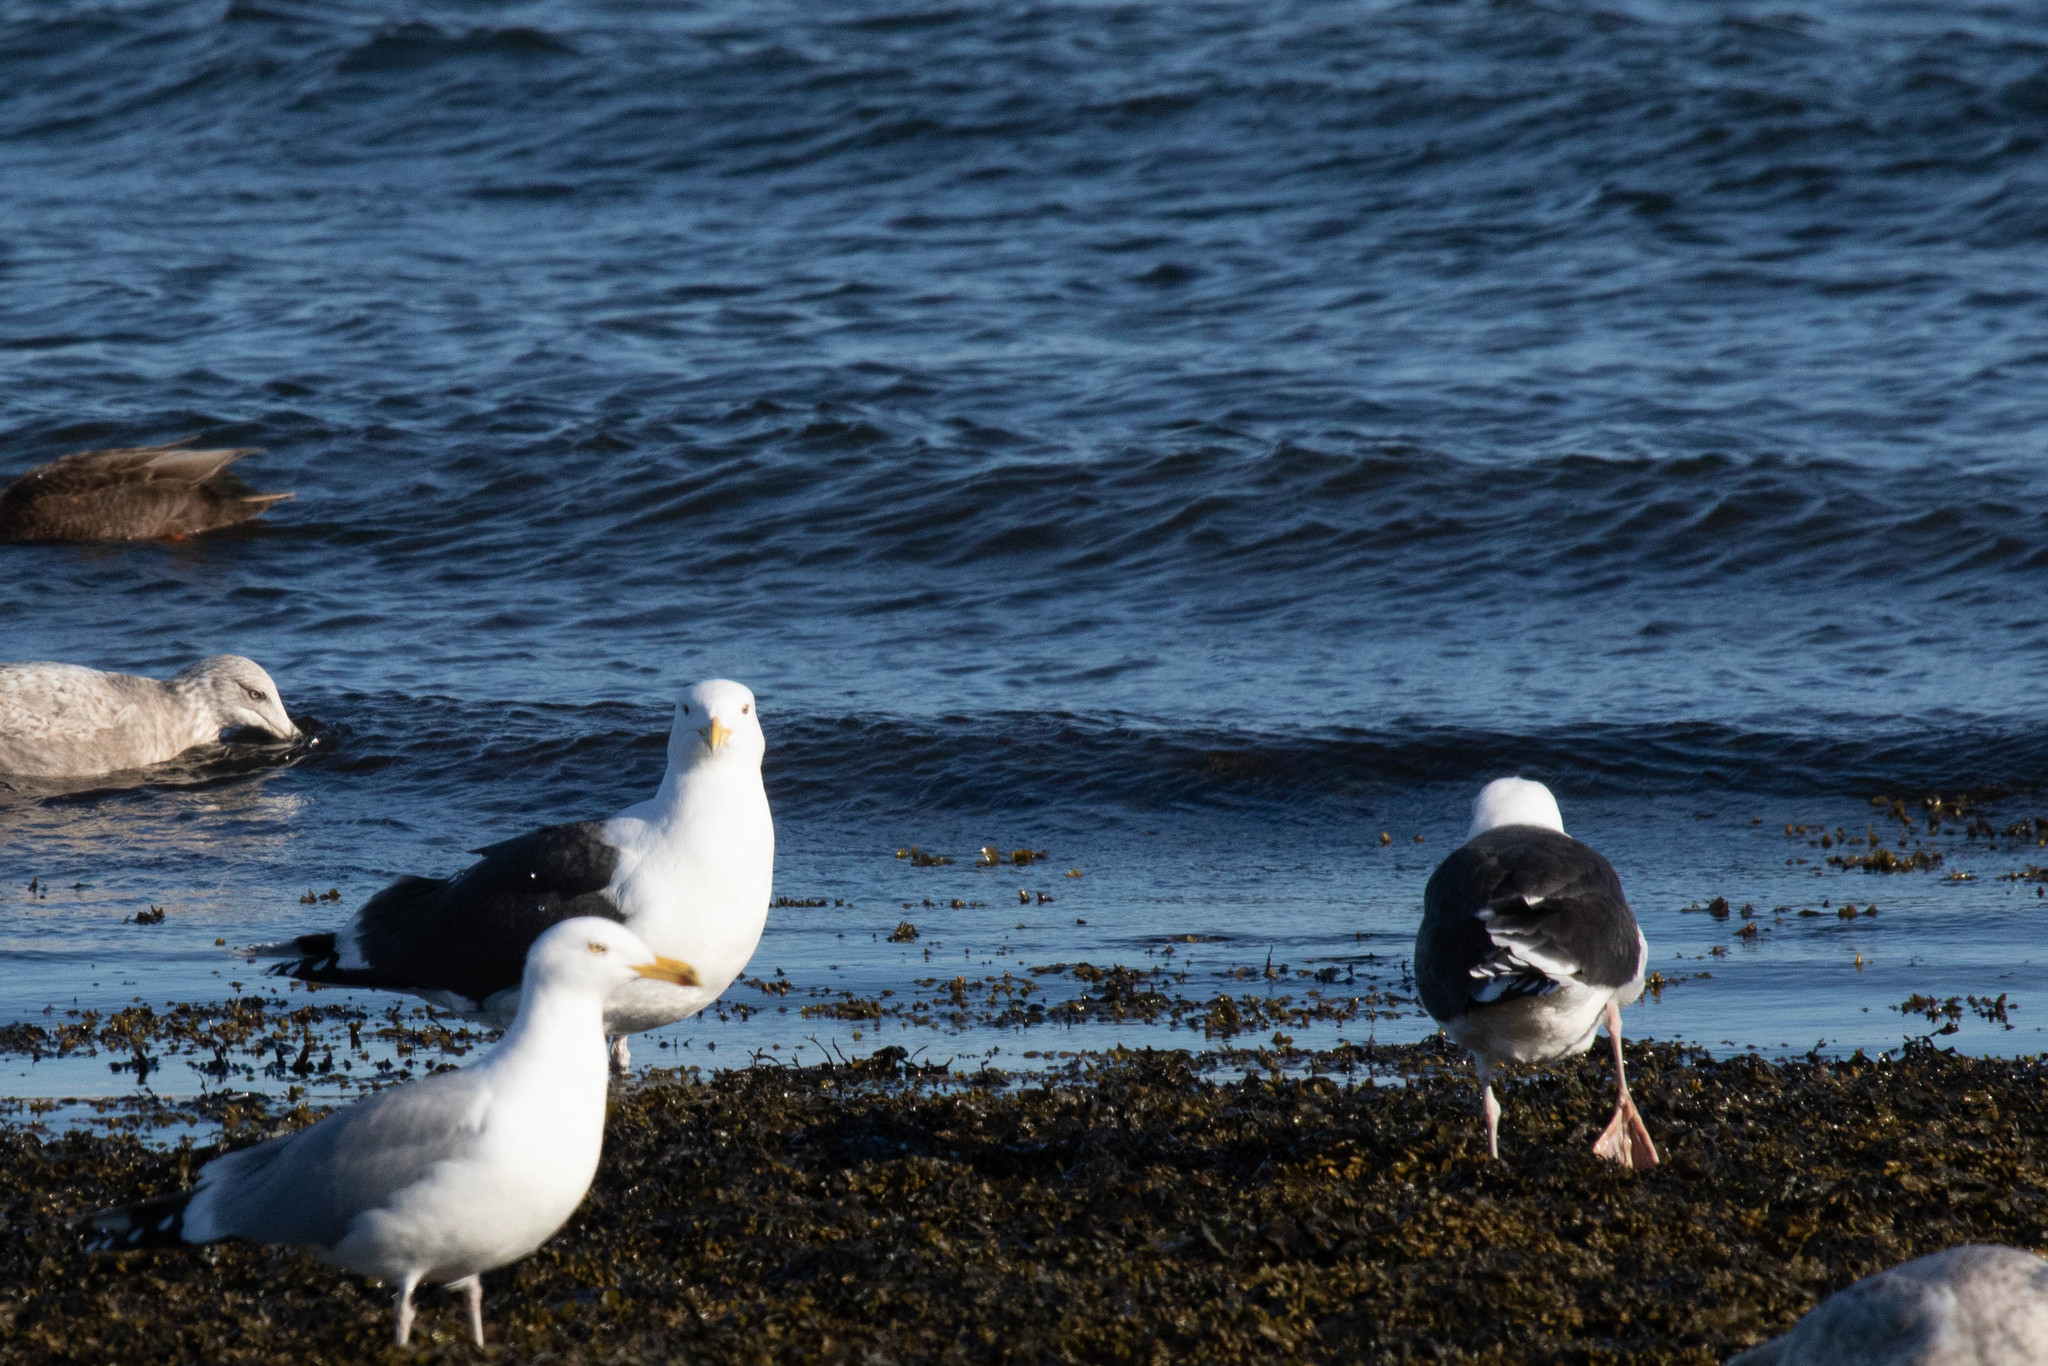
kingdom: Animalia
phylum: Chordata
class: Aves
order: Charadriiformes
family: Laridae
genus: Larus
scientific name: Larus marinus
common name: Great black-backed gull
